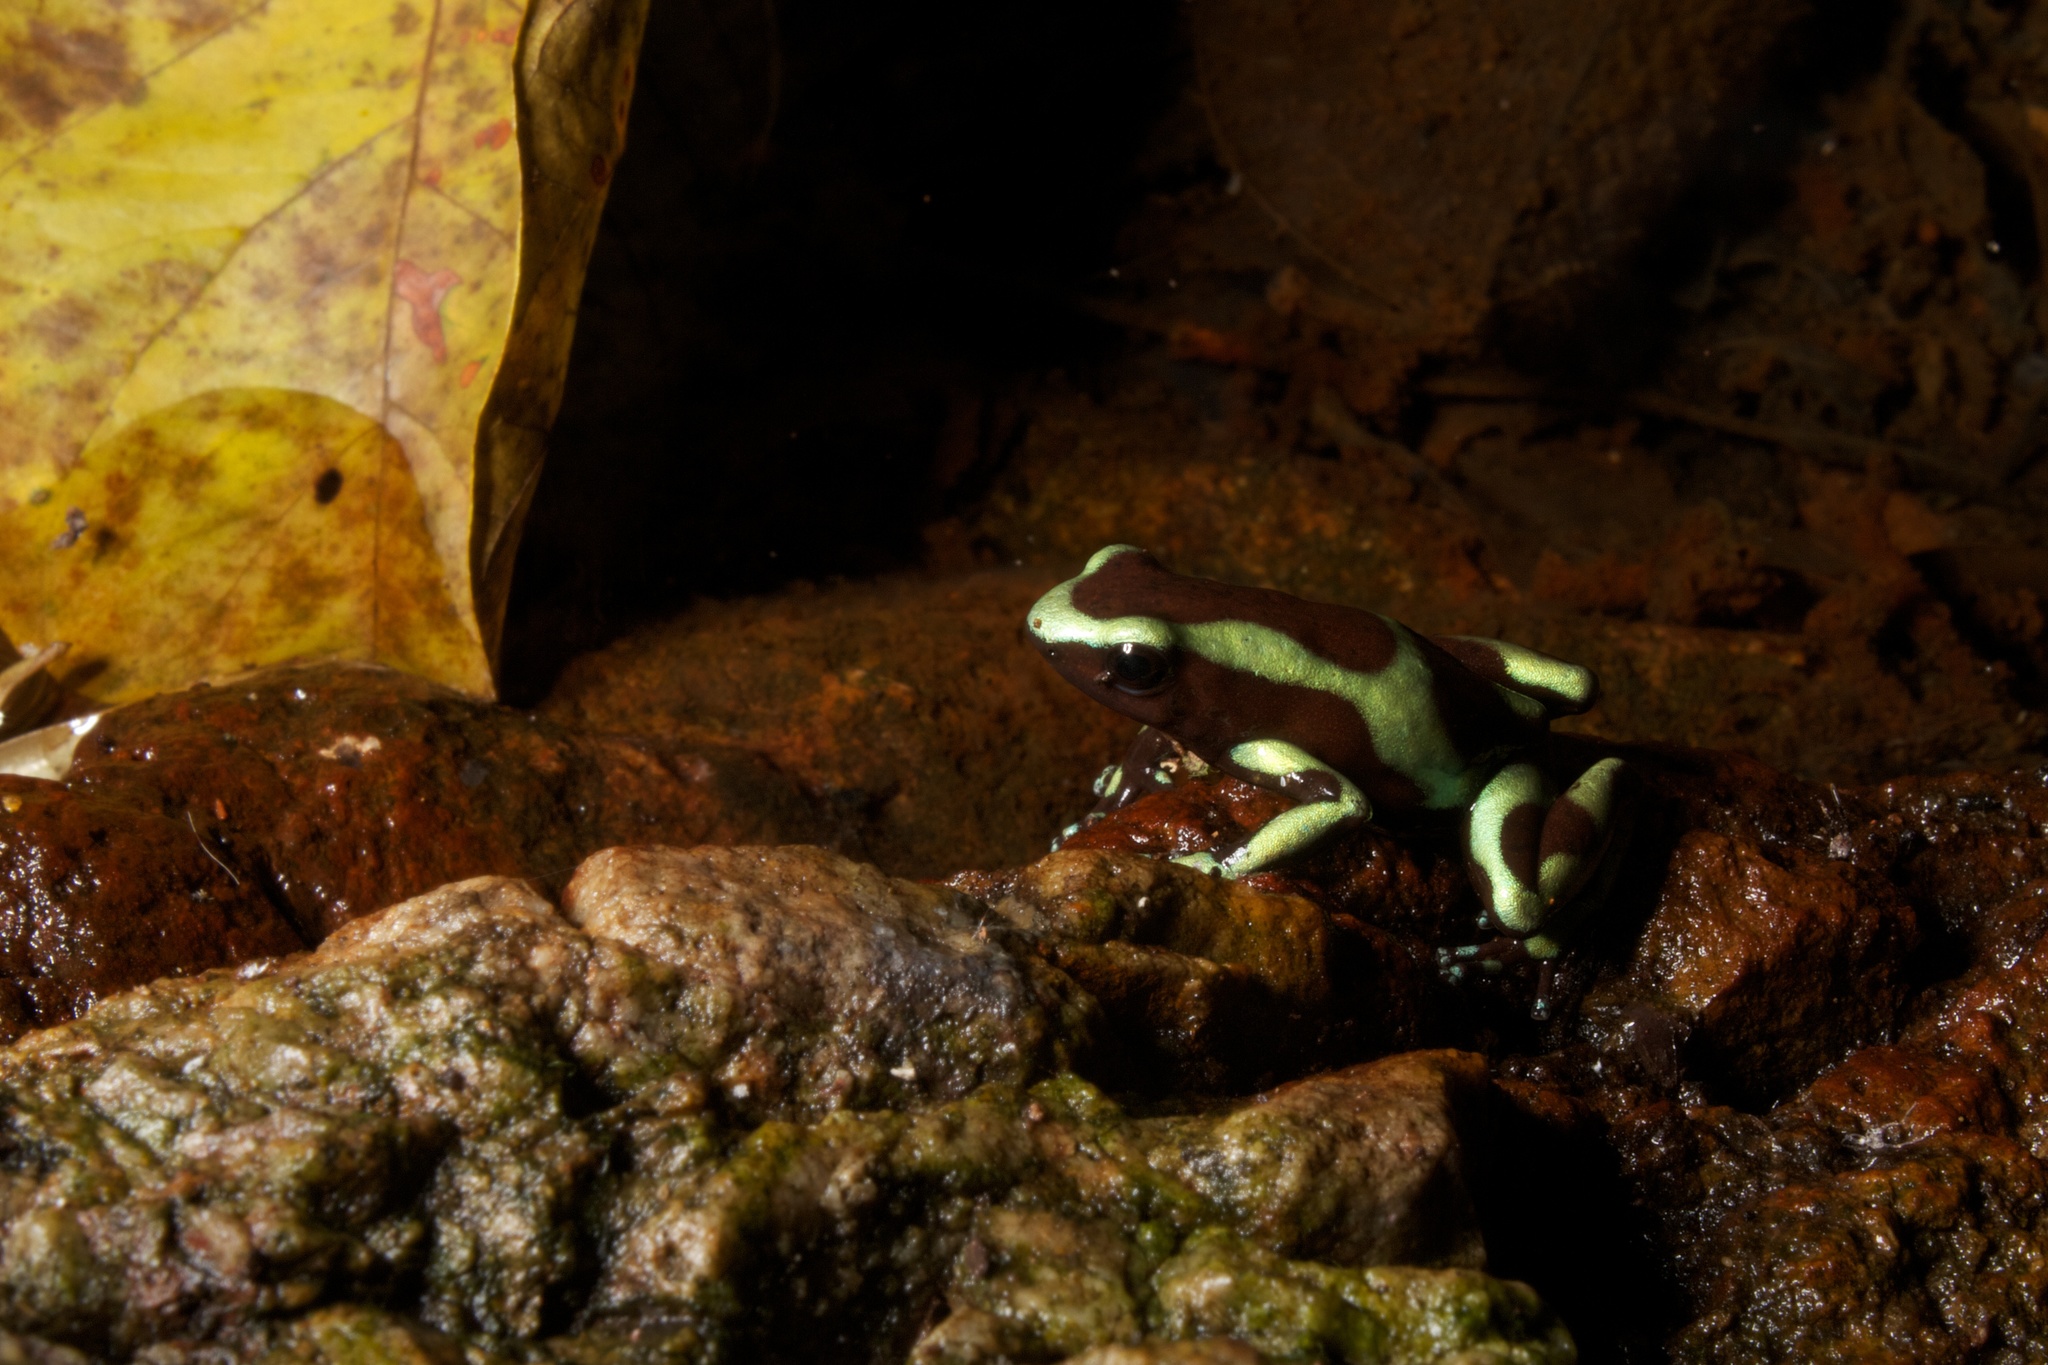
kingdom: Animalia
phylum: Chordata
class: Amphibia
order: Anura
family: Dendrobatidae
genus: Dendrobates
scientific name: Dendrobates auratus
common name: Green and black poison dart frog
